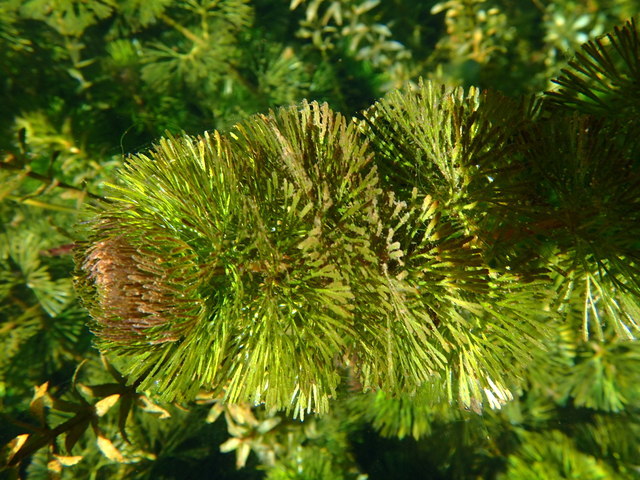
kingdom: Plantae
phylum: Tracheophyta
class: Magnoliopsida
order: Nymphaeales
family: Cabombaceae
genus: Cabomba
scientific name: Cabomba caroliniana
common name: Fanwort
